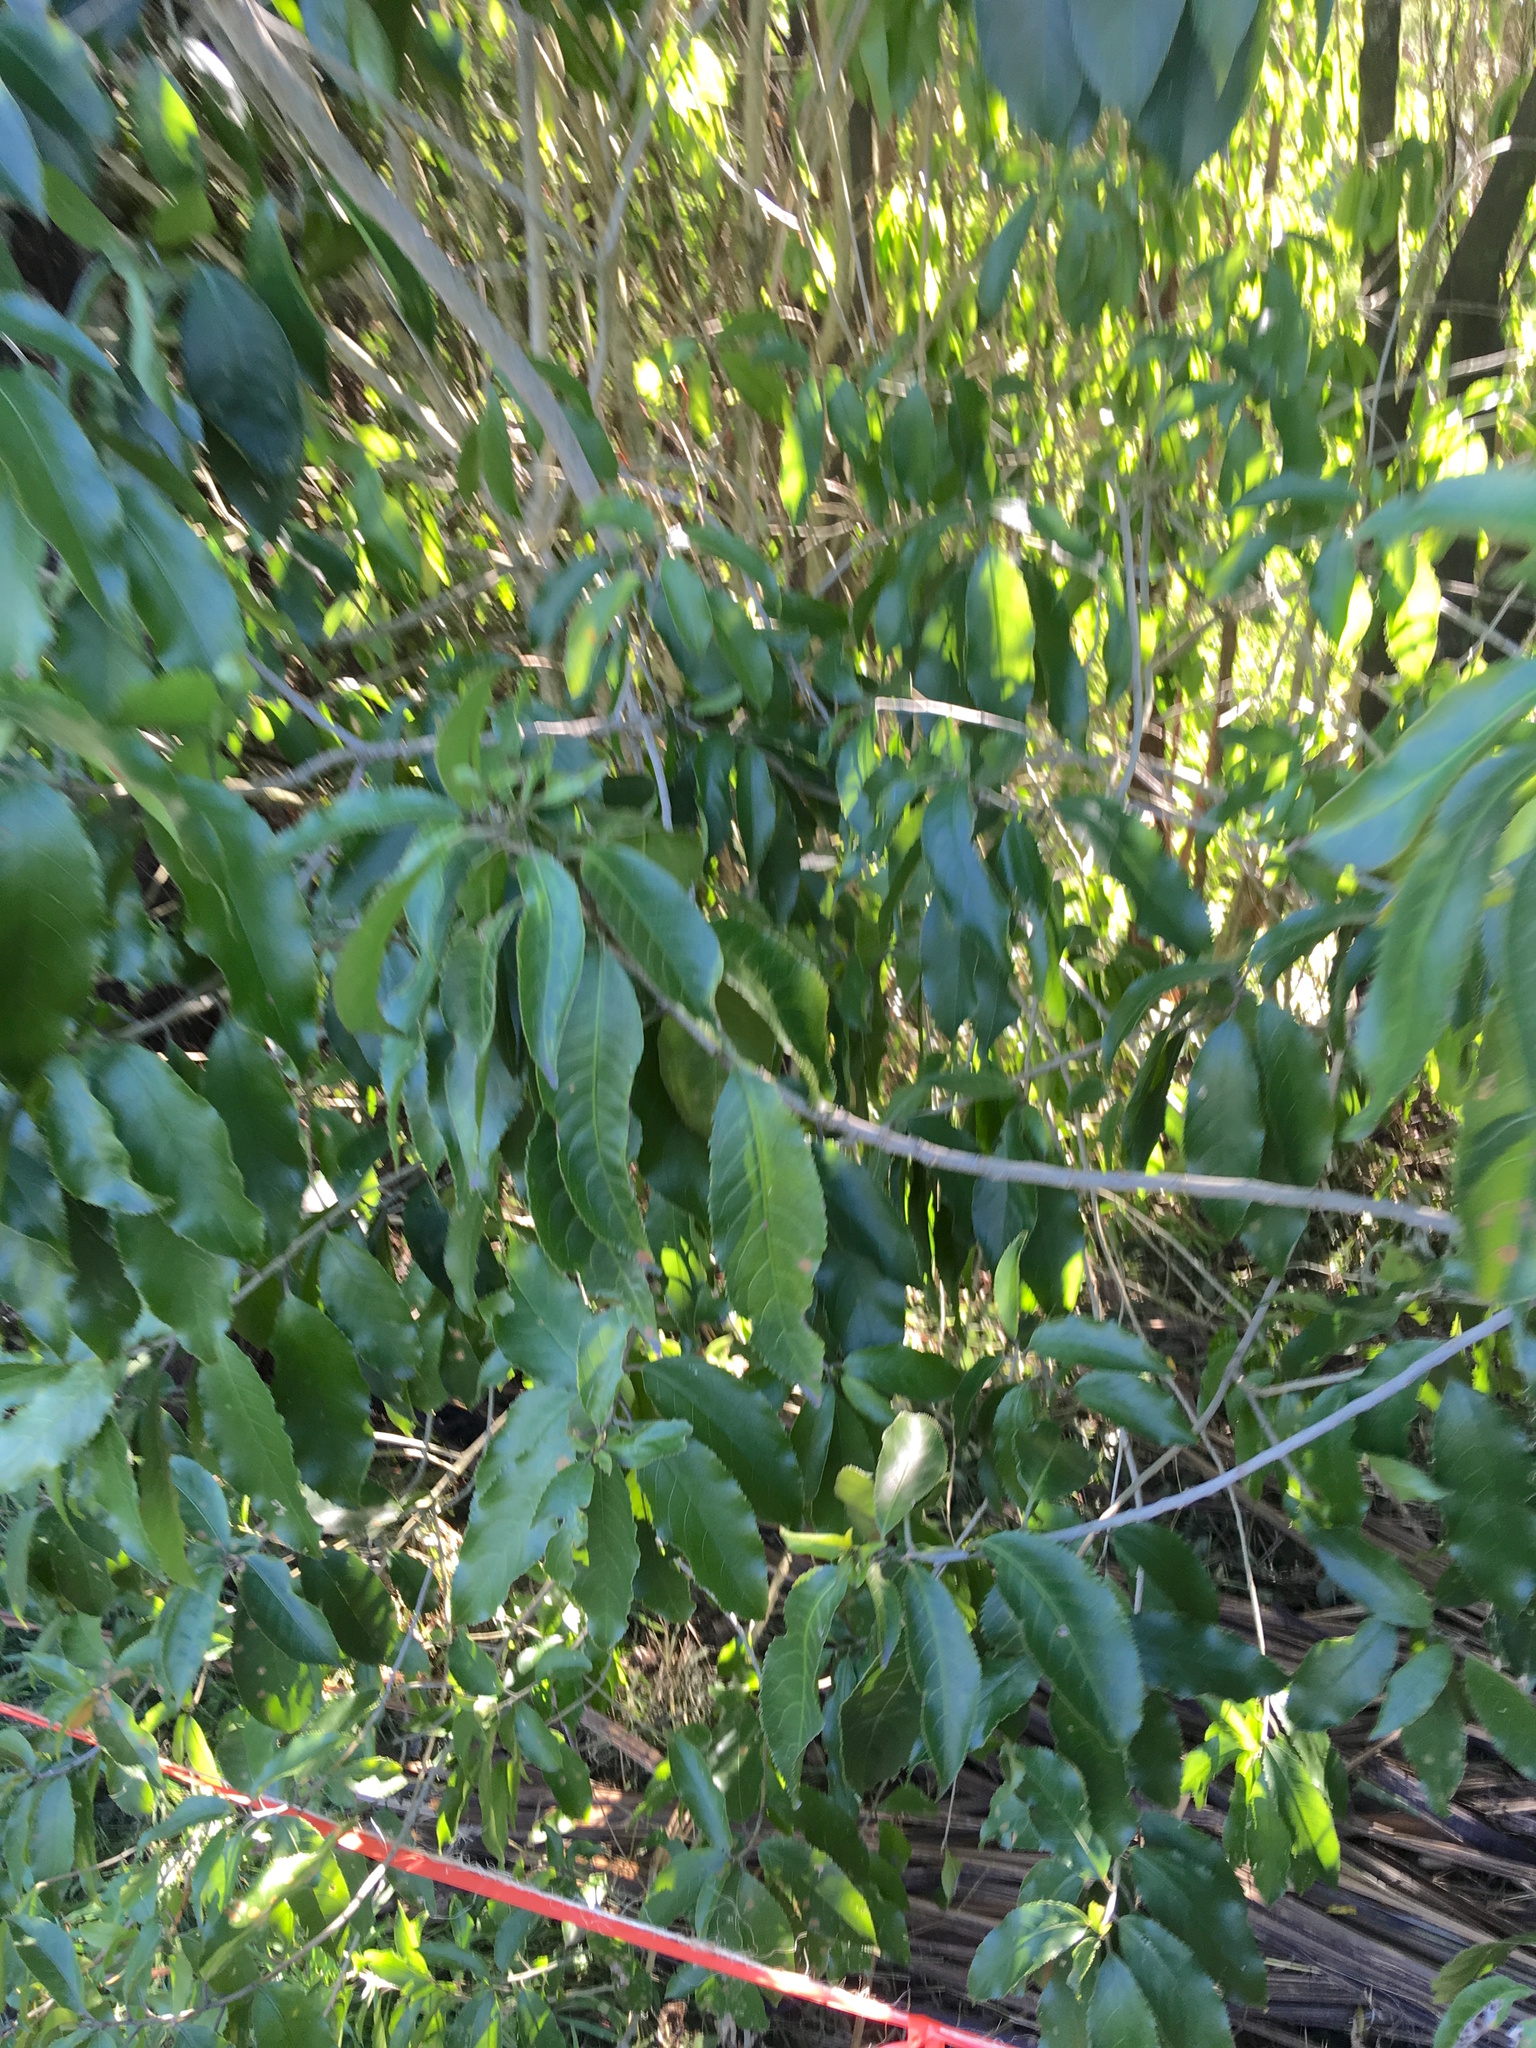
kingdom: Plantae
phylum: Tracheophyta
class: Magnoliopsida
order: Malpighiales
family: Violaceae
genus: Melicytus
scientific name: Melicytus ramiflorus
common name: Mahoe
